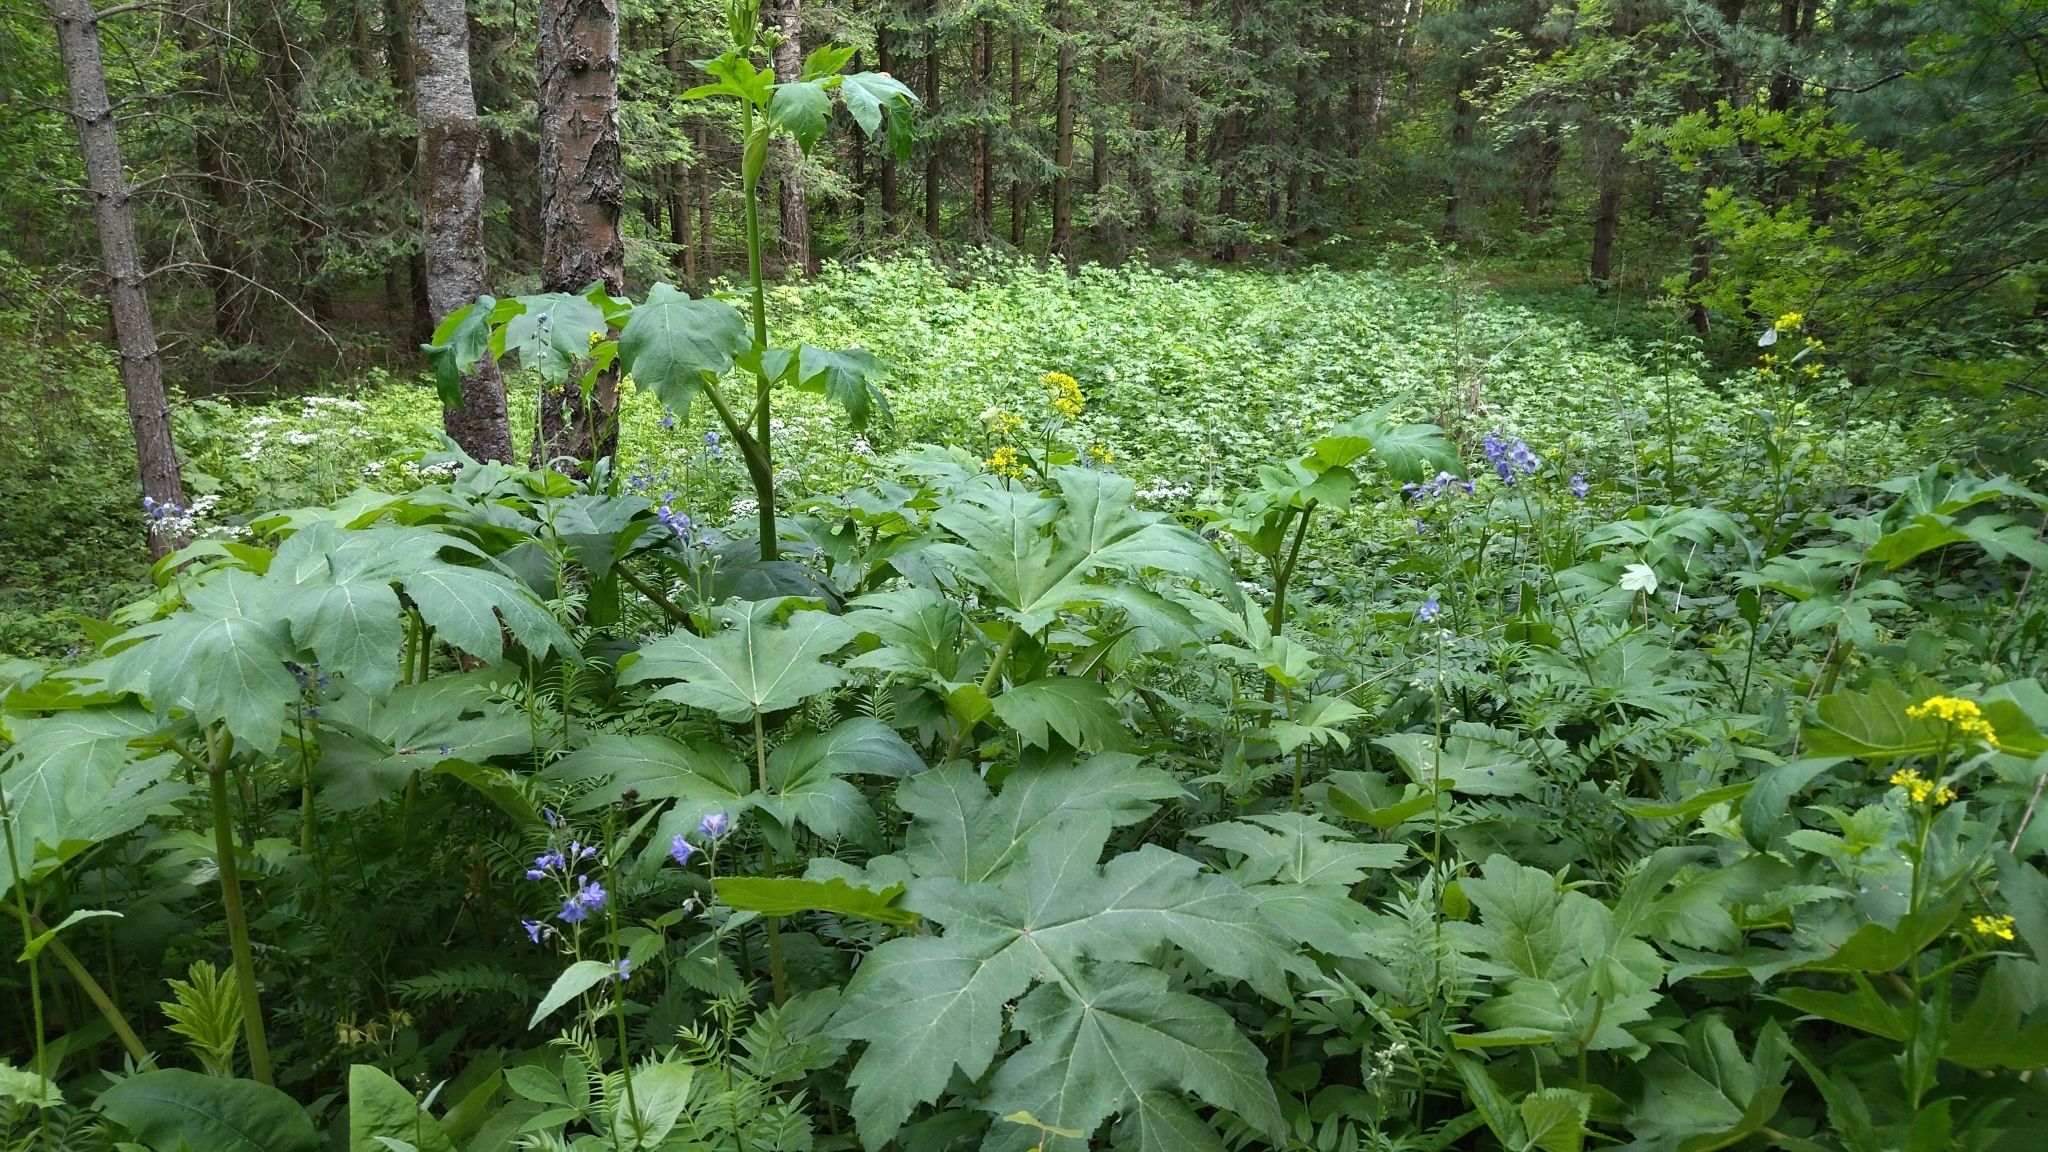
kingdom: Plantae
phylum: Tracheophyta
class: Magnoliopsida
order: Apiales
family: Apiaceae
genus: Heracleum
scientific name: Heracleum dissectum
